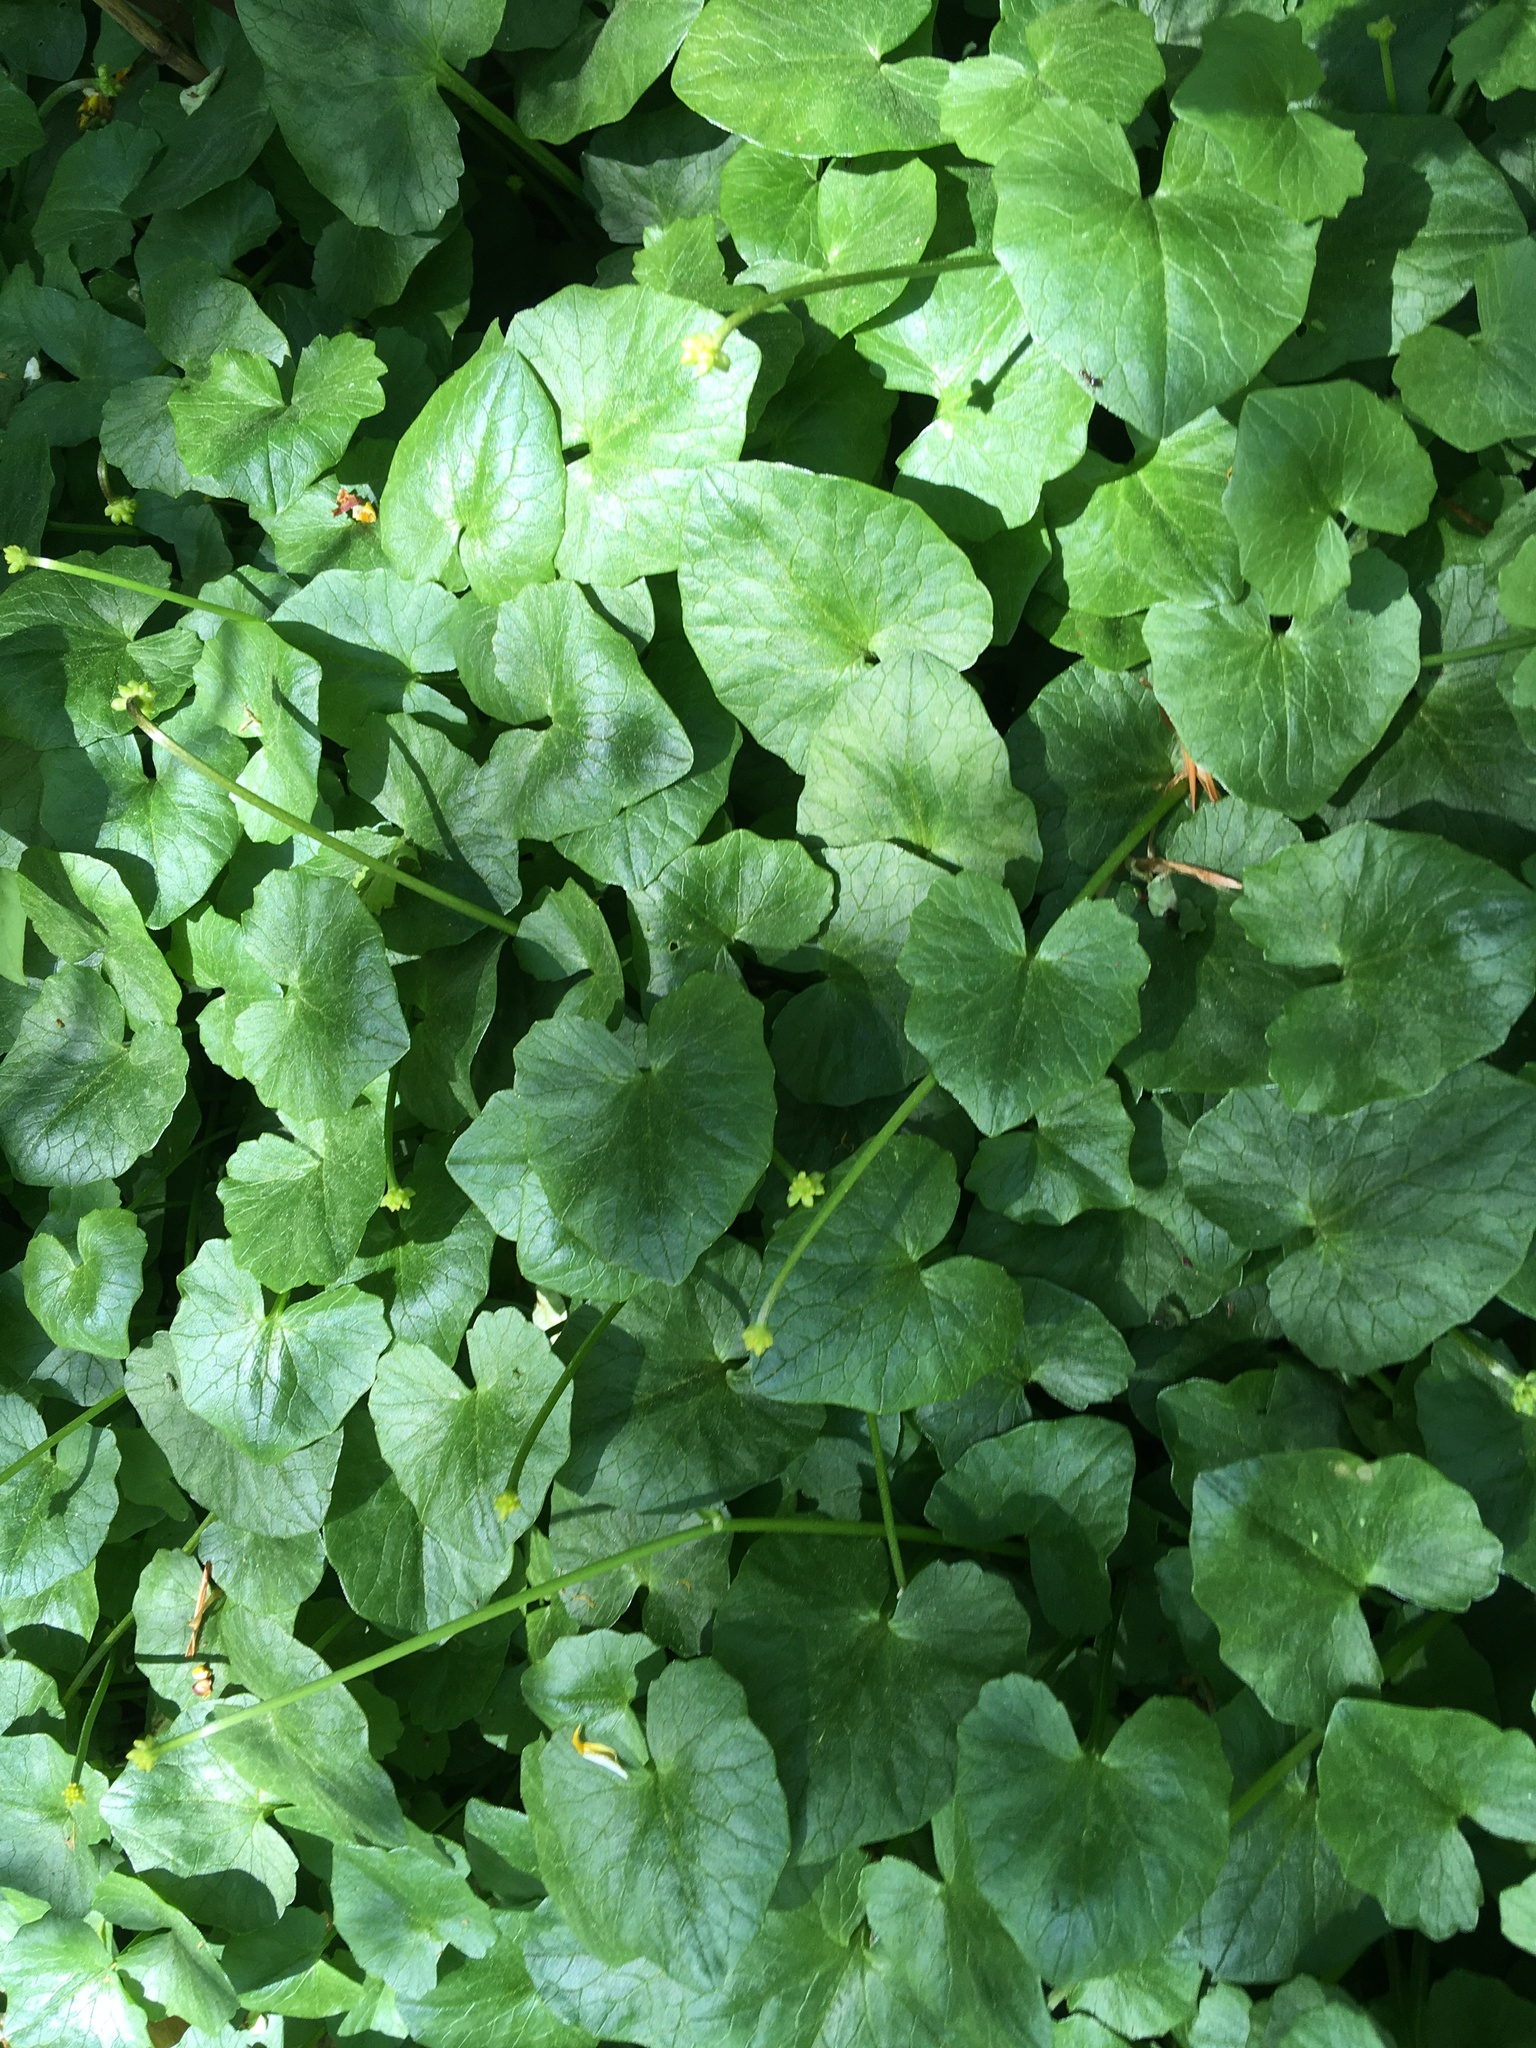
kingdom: Plantae
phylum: Tracheophyta
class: Magnoliopsida
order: Ranunculales
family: Ranunculaceae
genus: Ficaria
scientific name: Ficaria verna
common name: Lesser celandine
